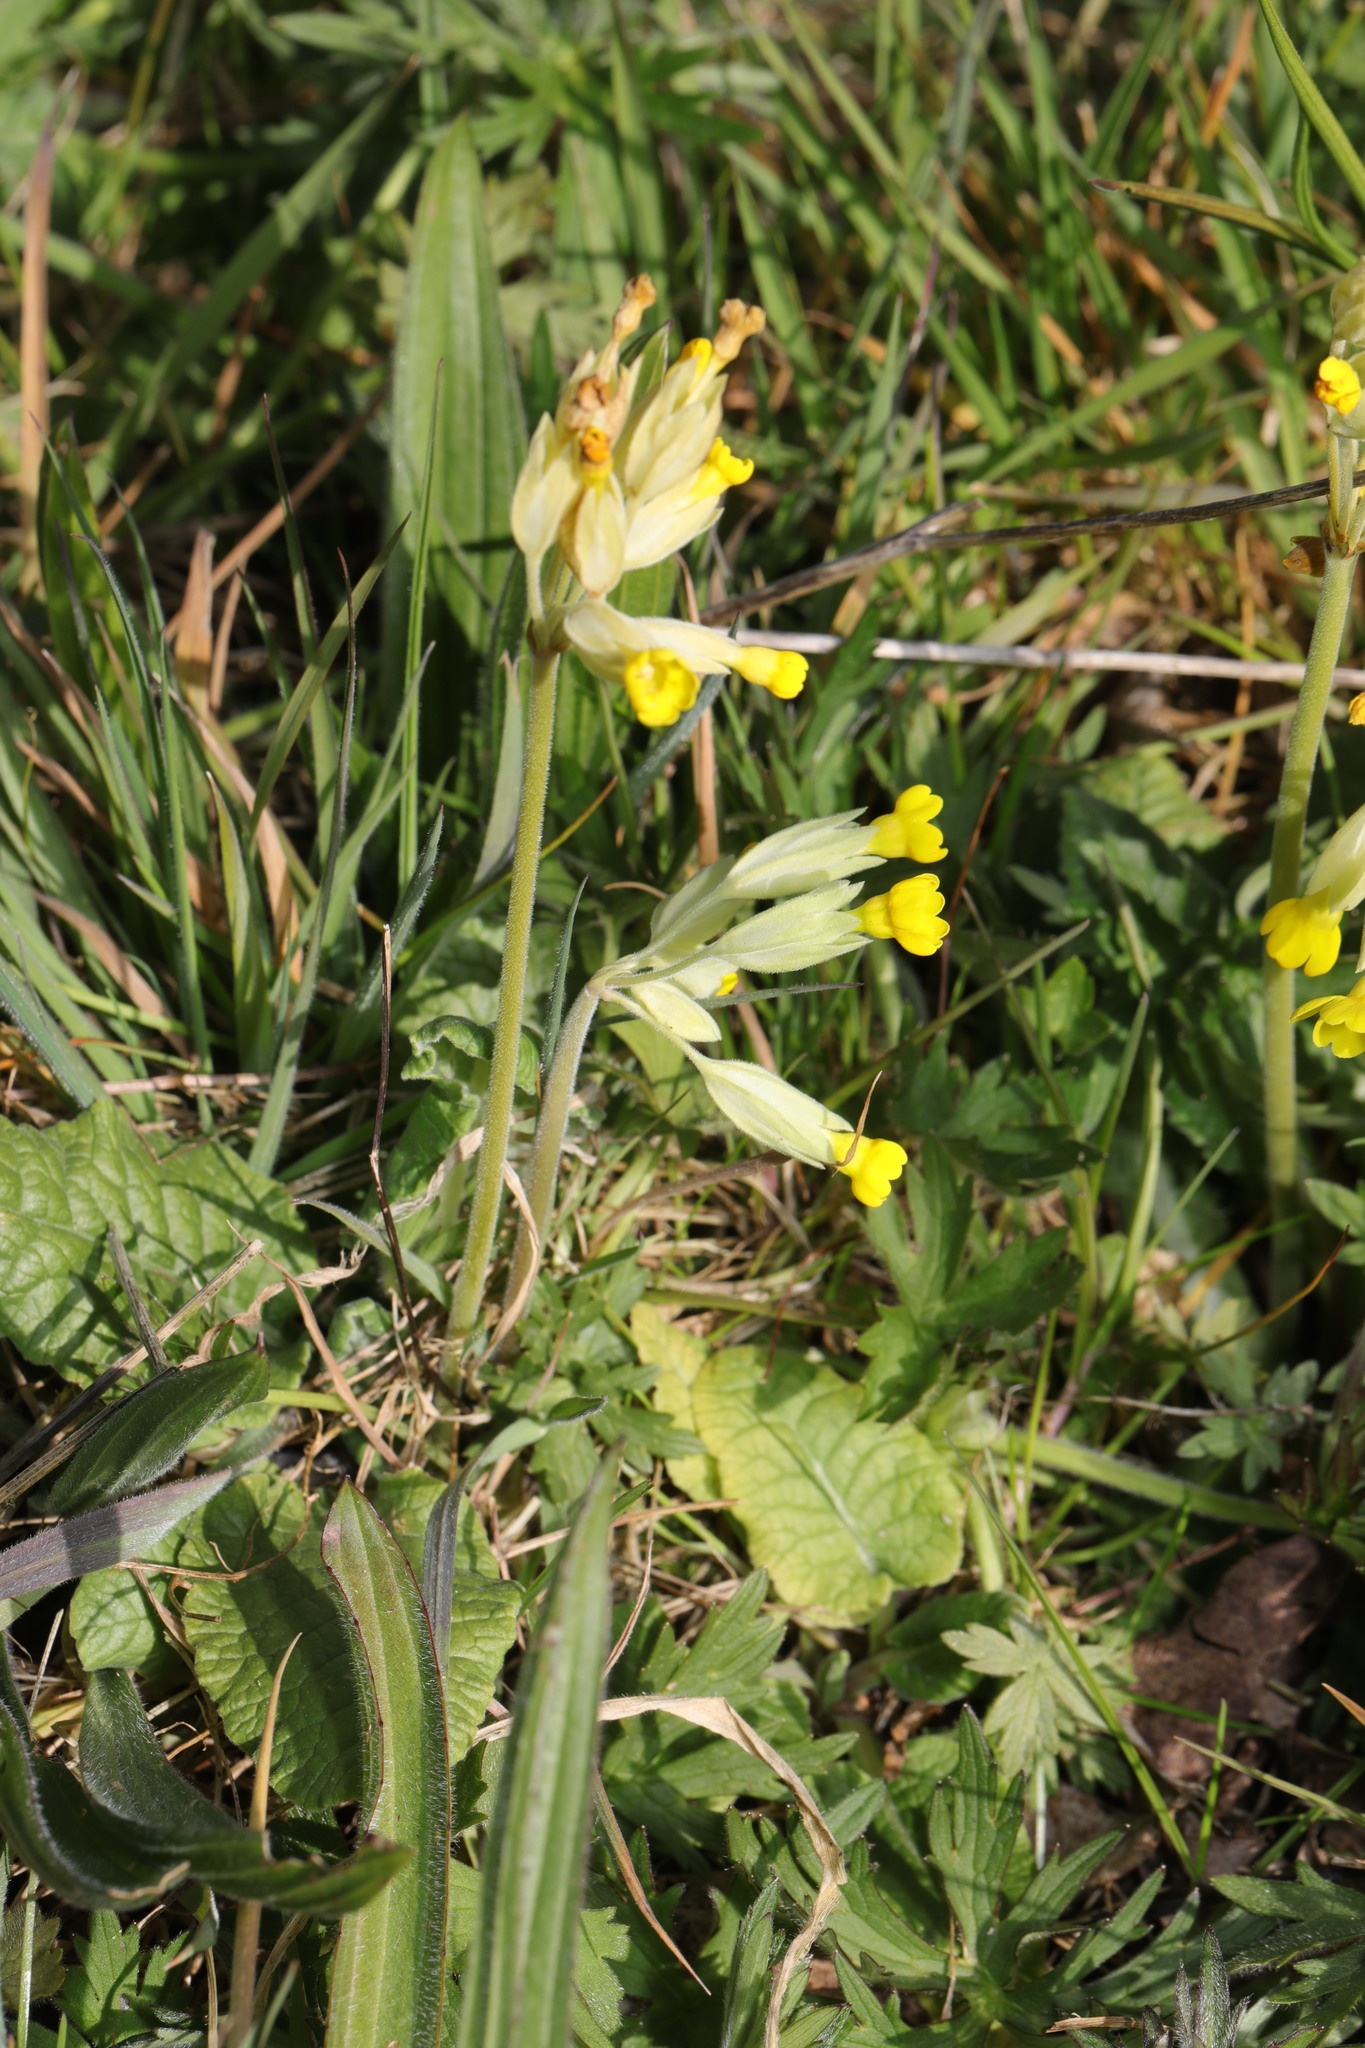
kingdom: Plantae
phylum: Tracheophyta
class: Magnoliopsida
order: Ericales
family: Primulaceae
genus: Primula
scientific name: Primula veris
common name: Cowslip
